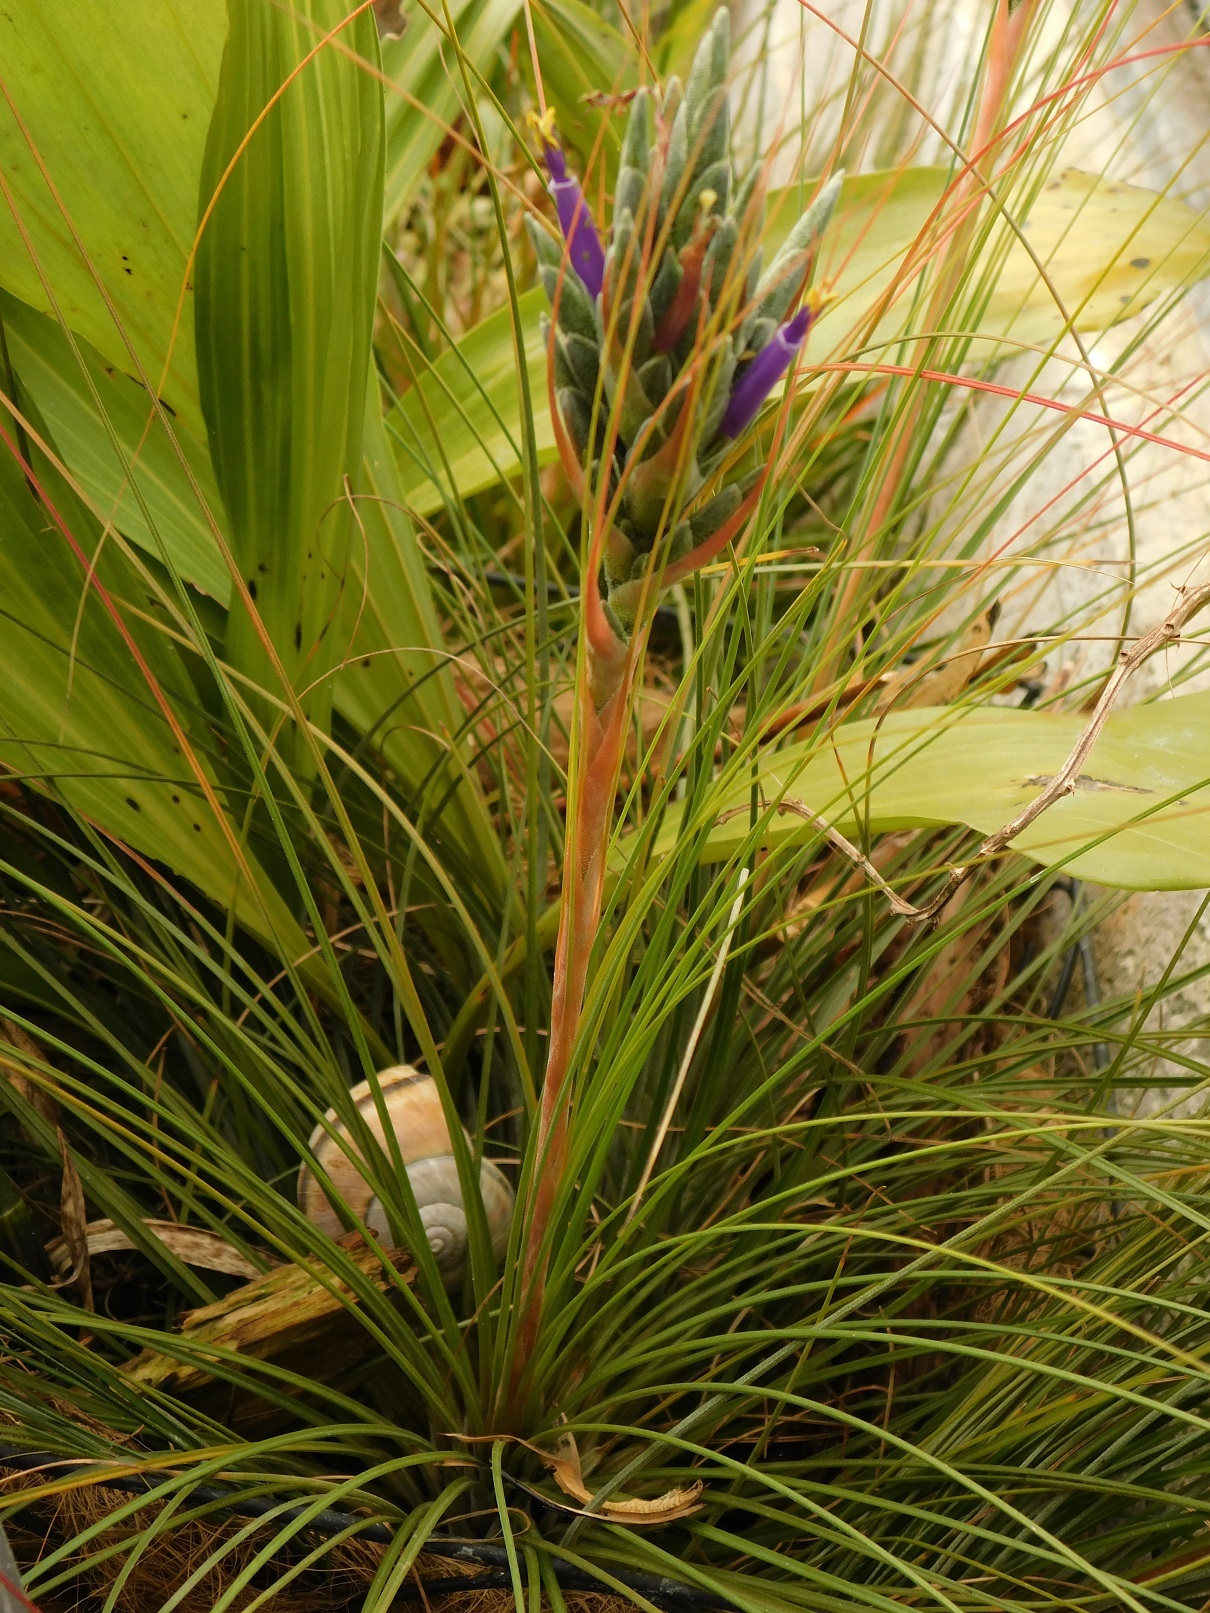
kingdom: Plantae
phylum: Tracheophyta
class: Liliopsida
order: Poales
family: Bromeliaceae
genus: Tillandsia
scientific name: Tillandsia juncea
